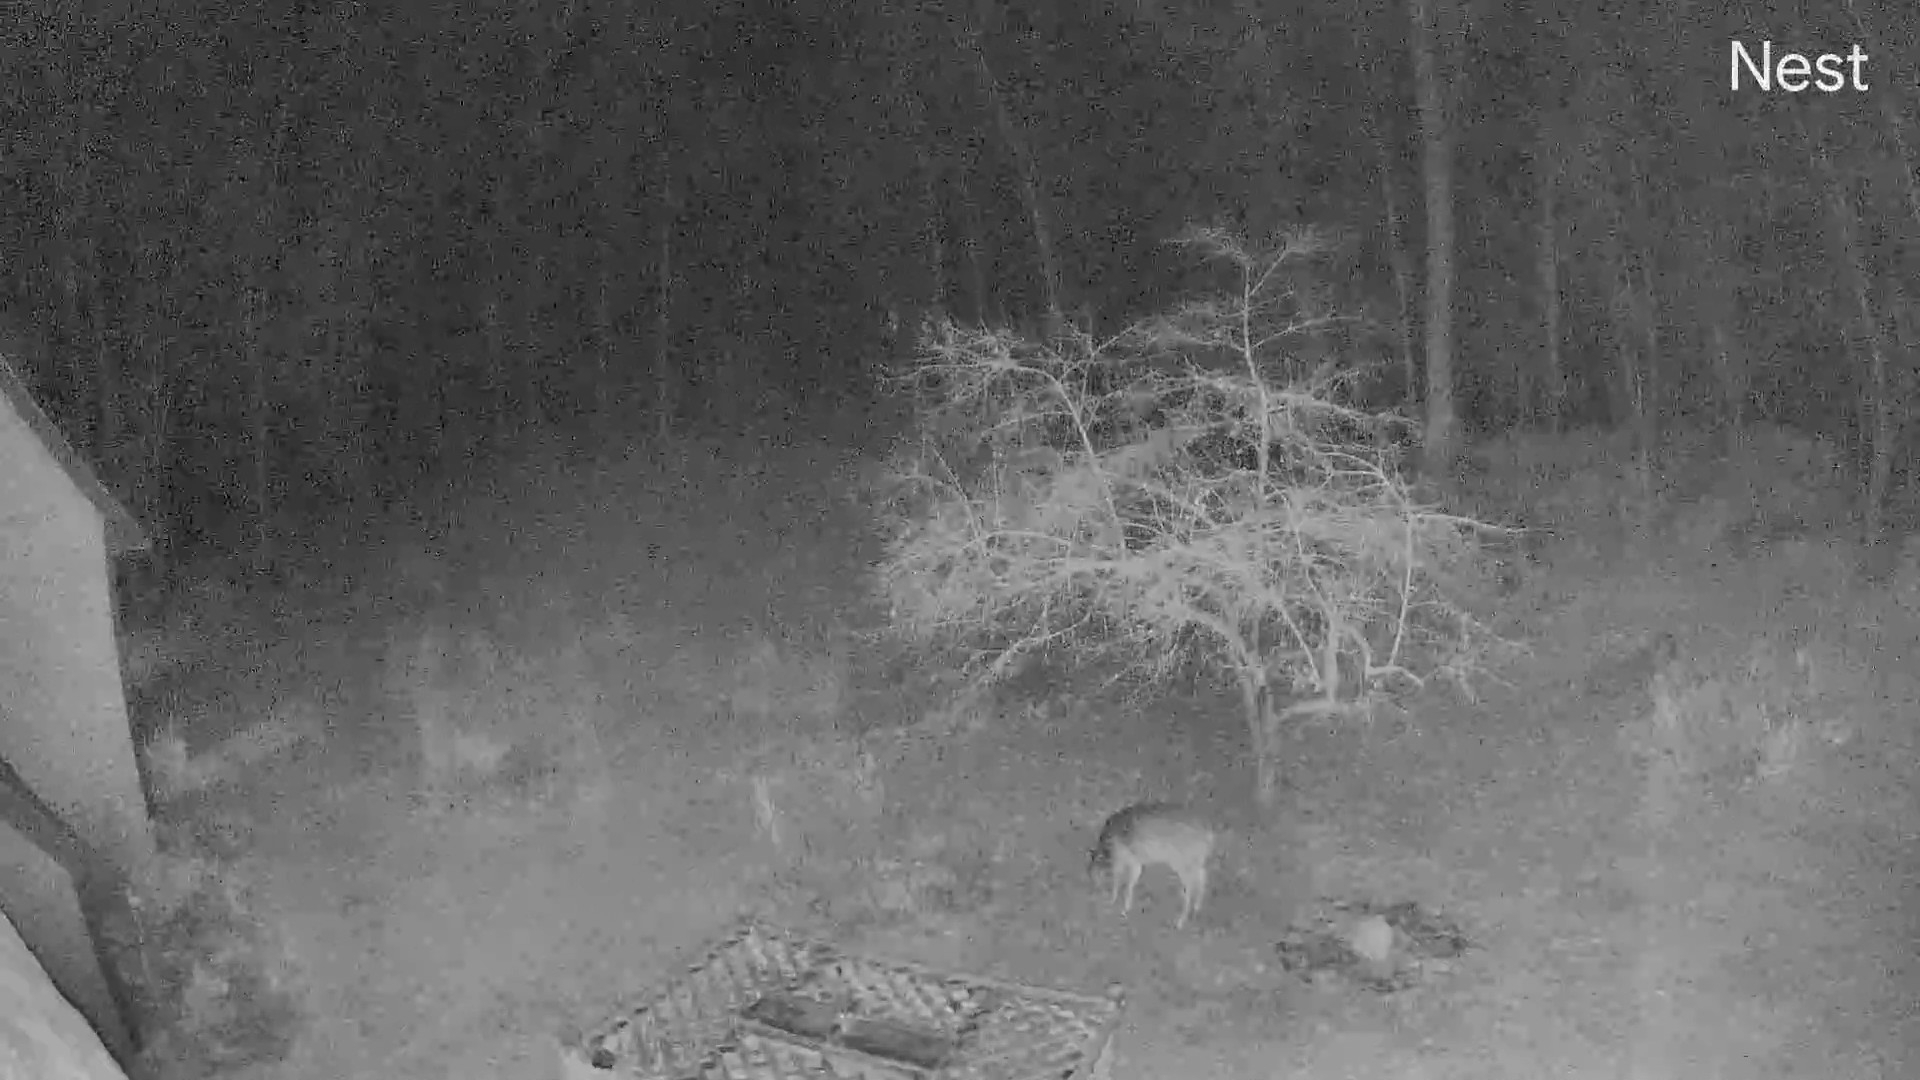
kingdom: Animalia
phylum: Chordata
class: Mammalia
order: Artiodactyla
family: Cervidae
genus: Odocoileus
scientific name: Odocoileus virginianus
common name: White-tailed deer
